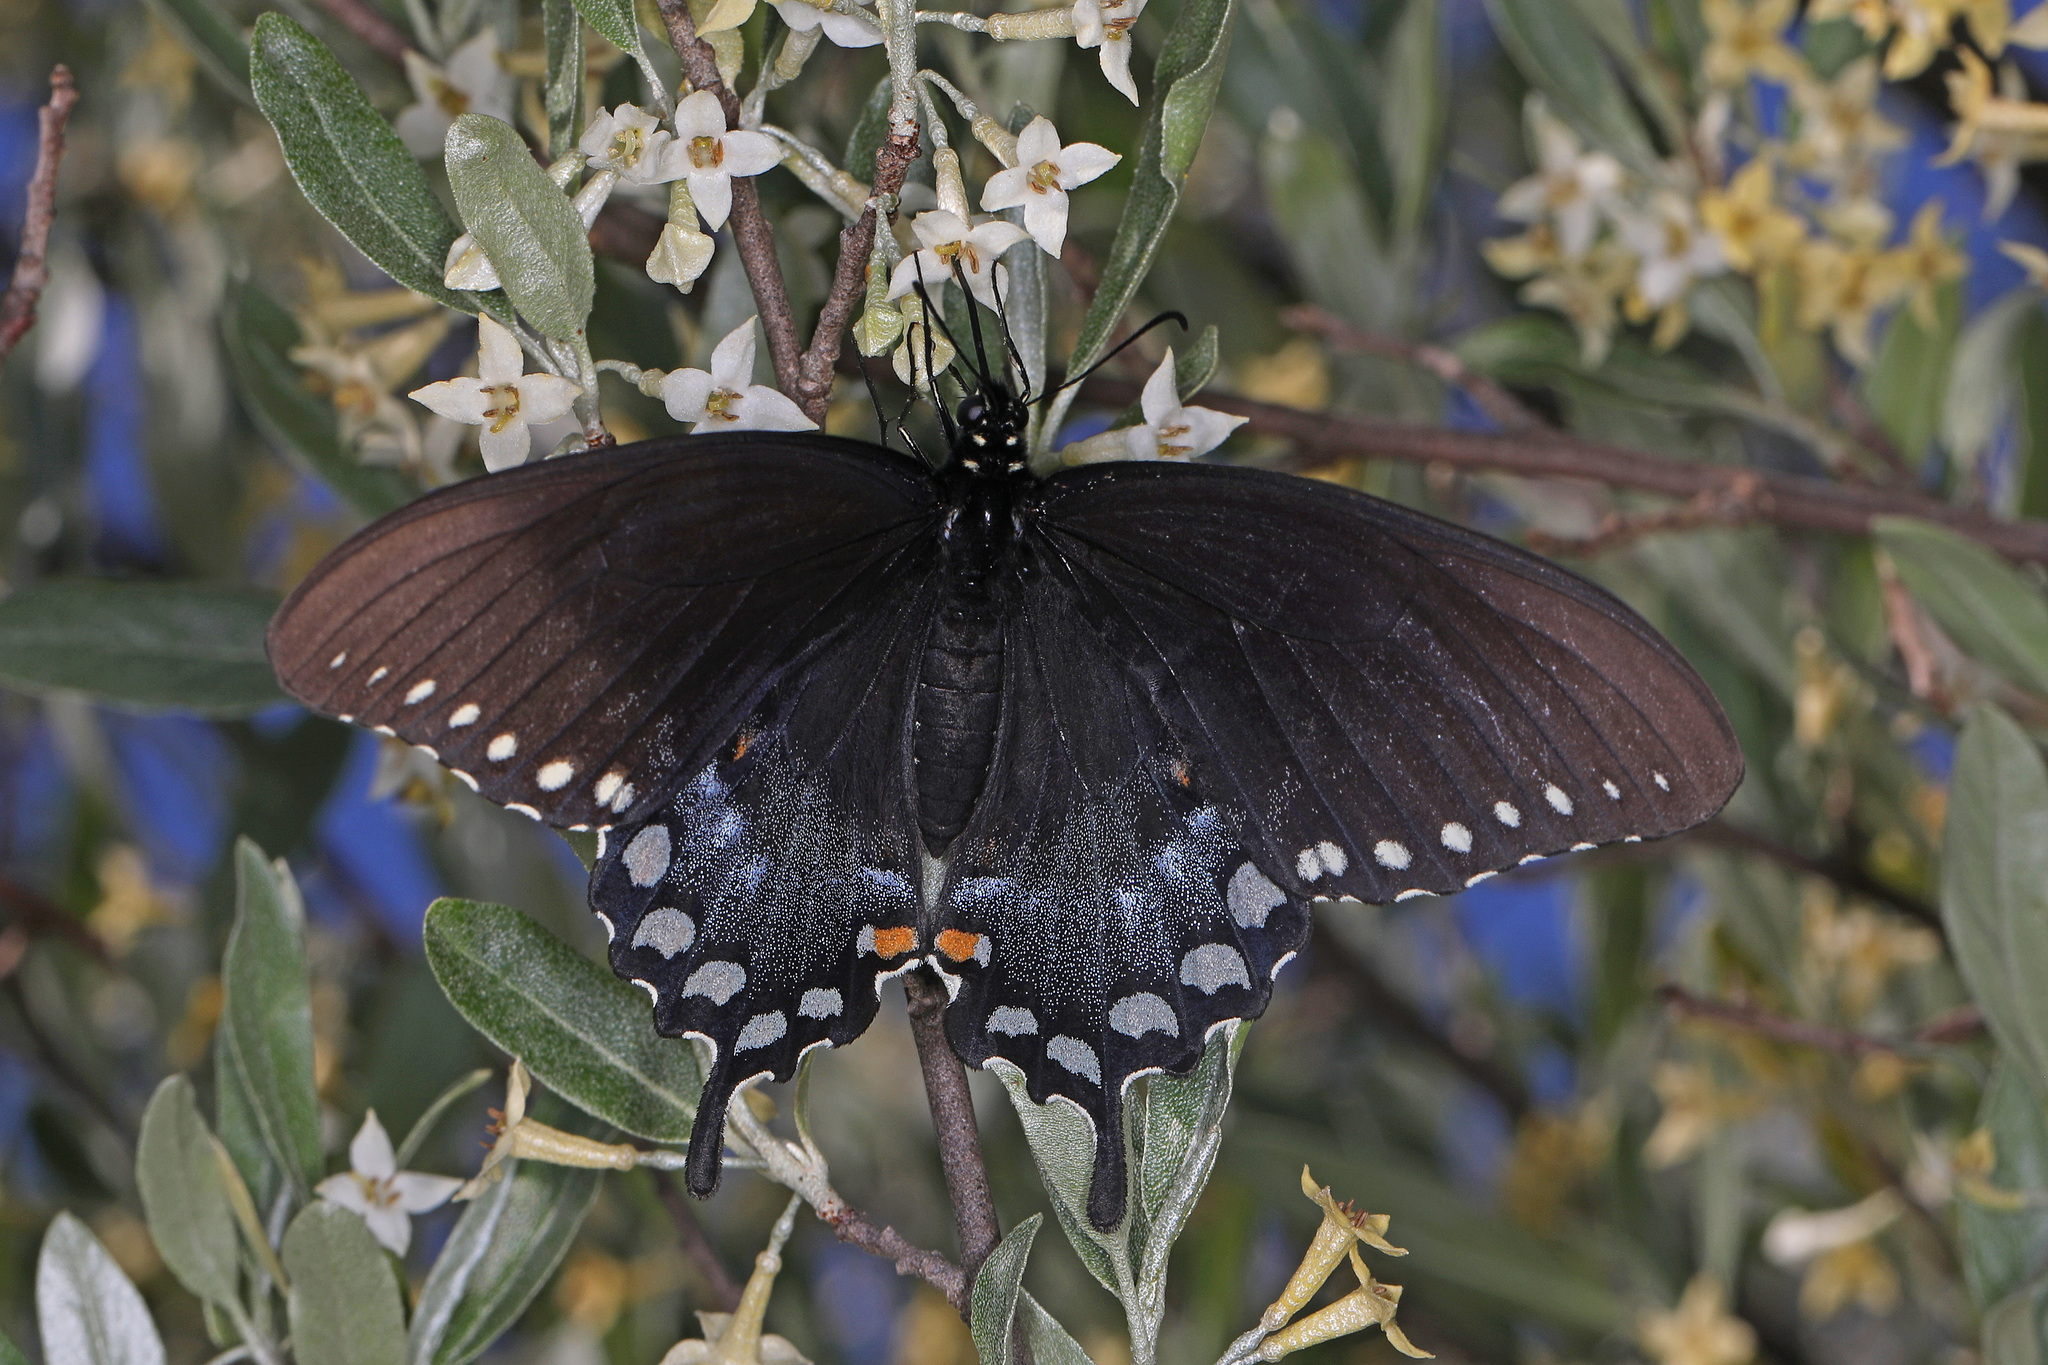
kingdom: Animalia
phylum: Arthropoda
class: Insecta
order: Lepidoptera
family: Papilionidae
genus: Papilio
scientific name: Papilio troilus
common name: Spicebush swallowtail
